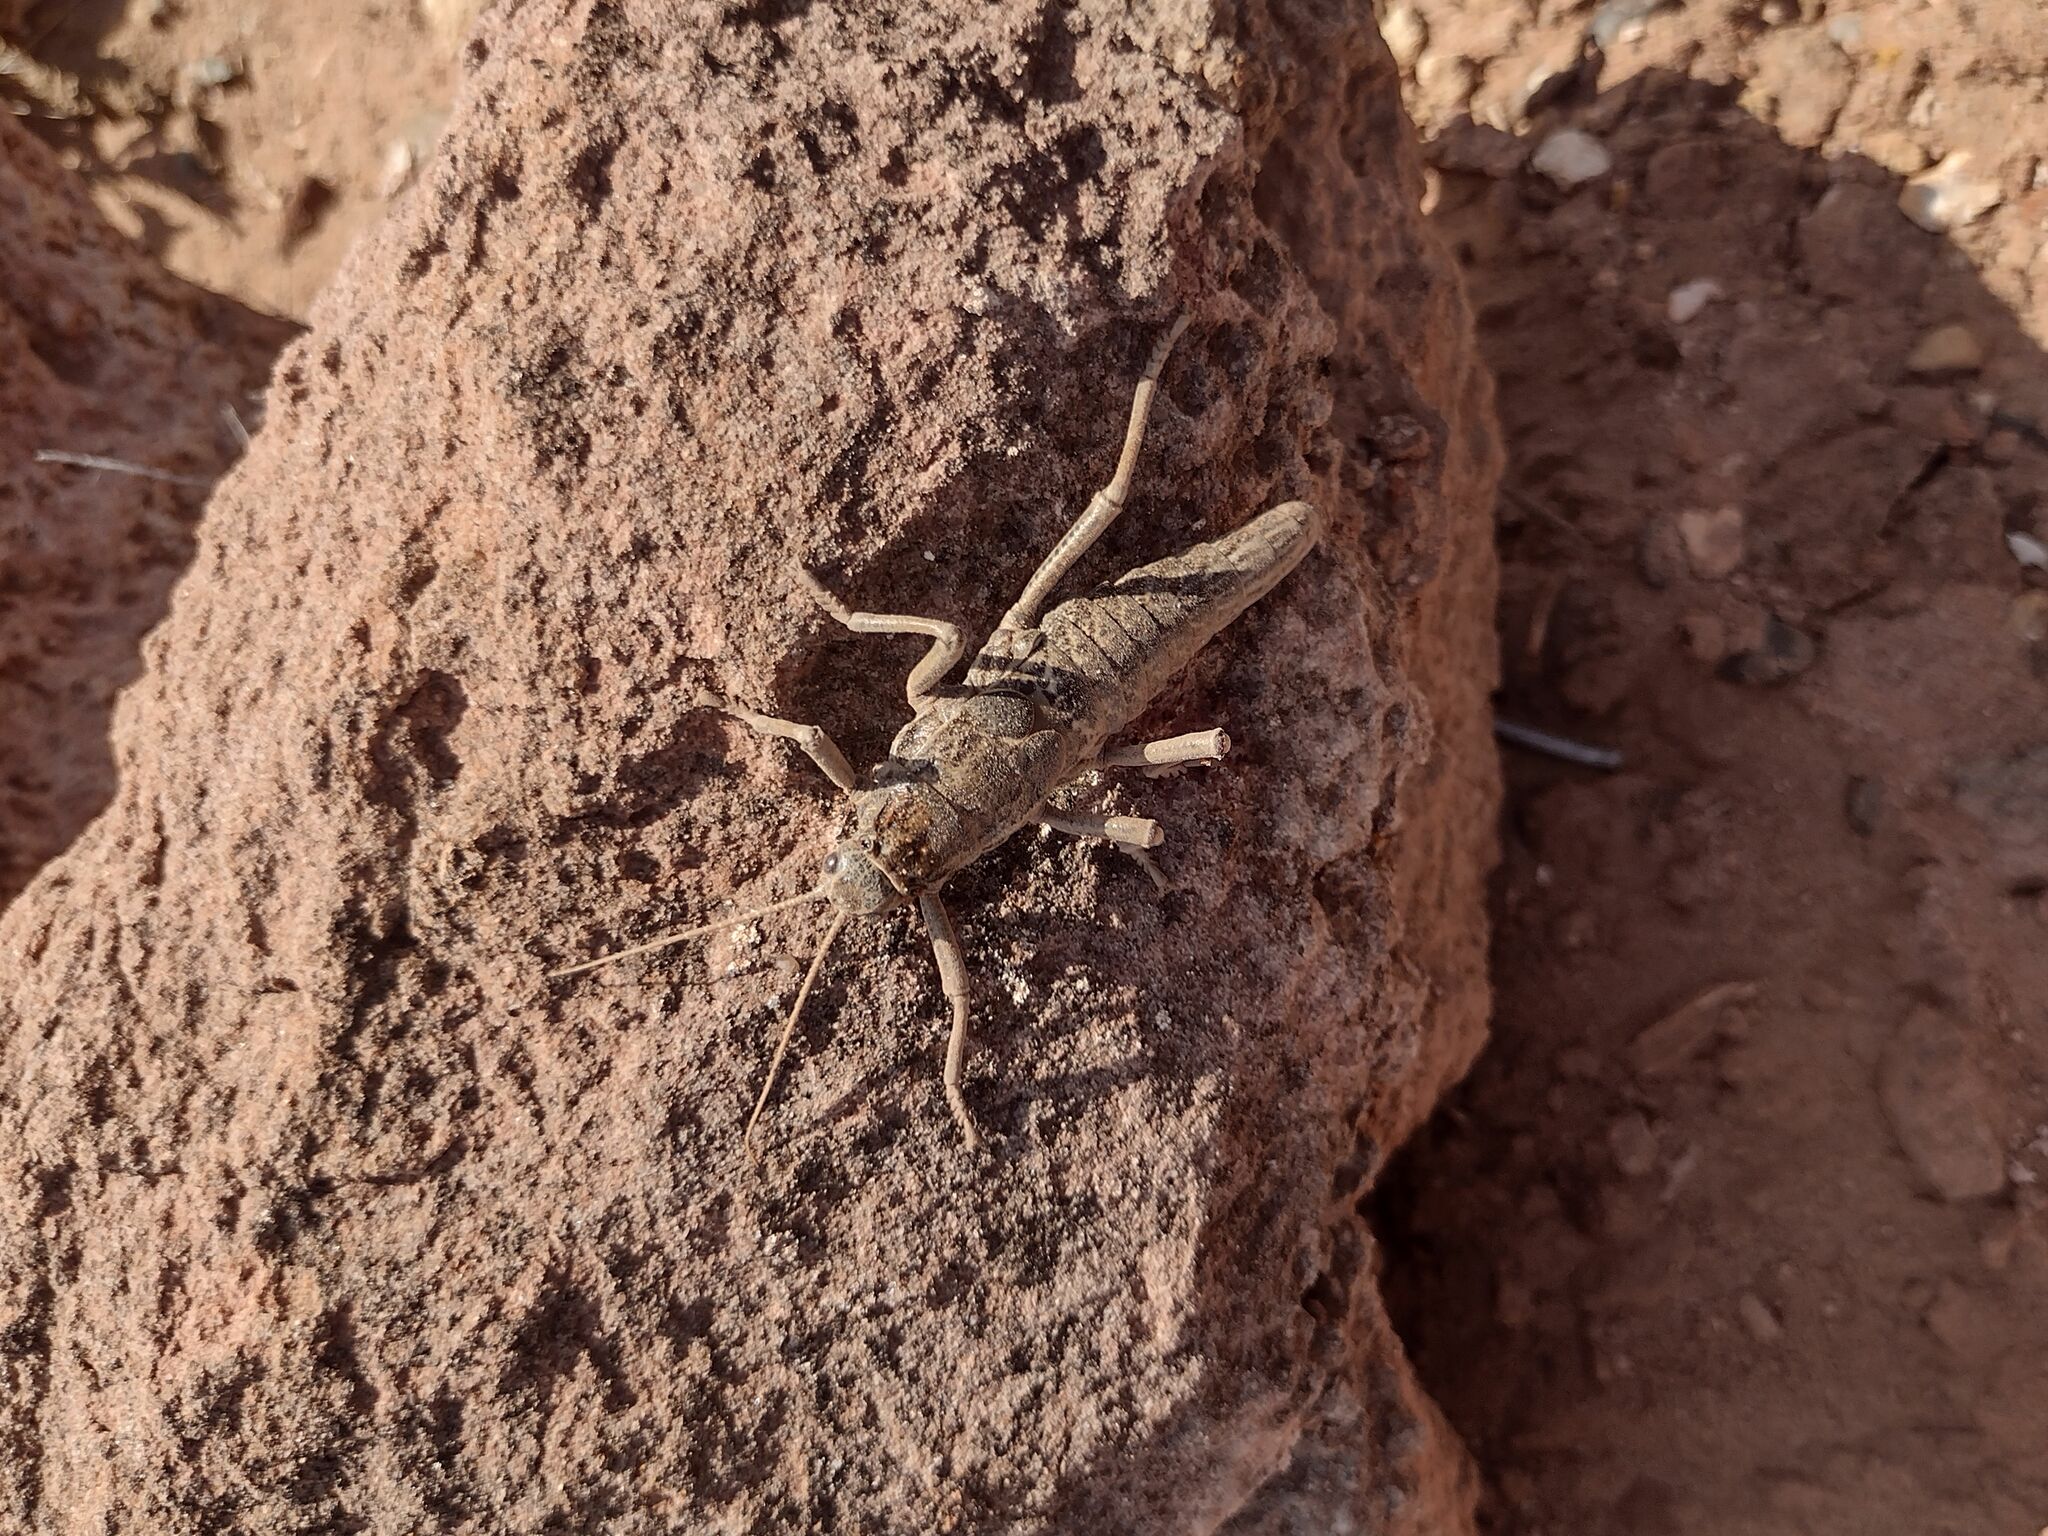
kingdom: Animalia
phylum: Arthropoda
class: Insecta
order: Phasmida
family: Agathemeridae
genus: Agathemera
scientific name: Agathemera millepunctata
